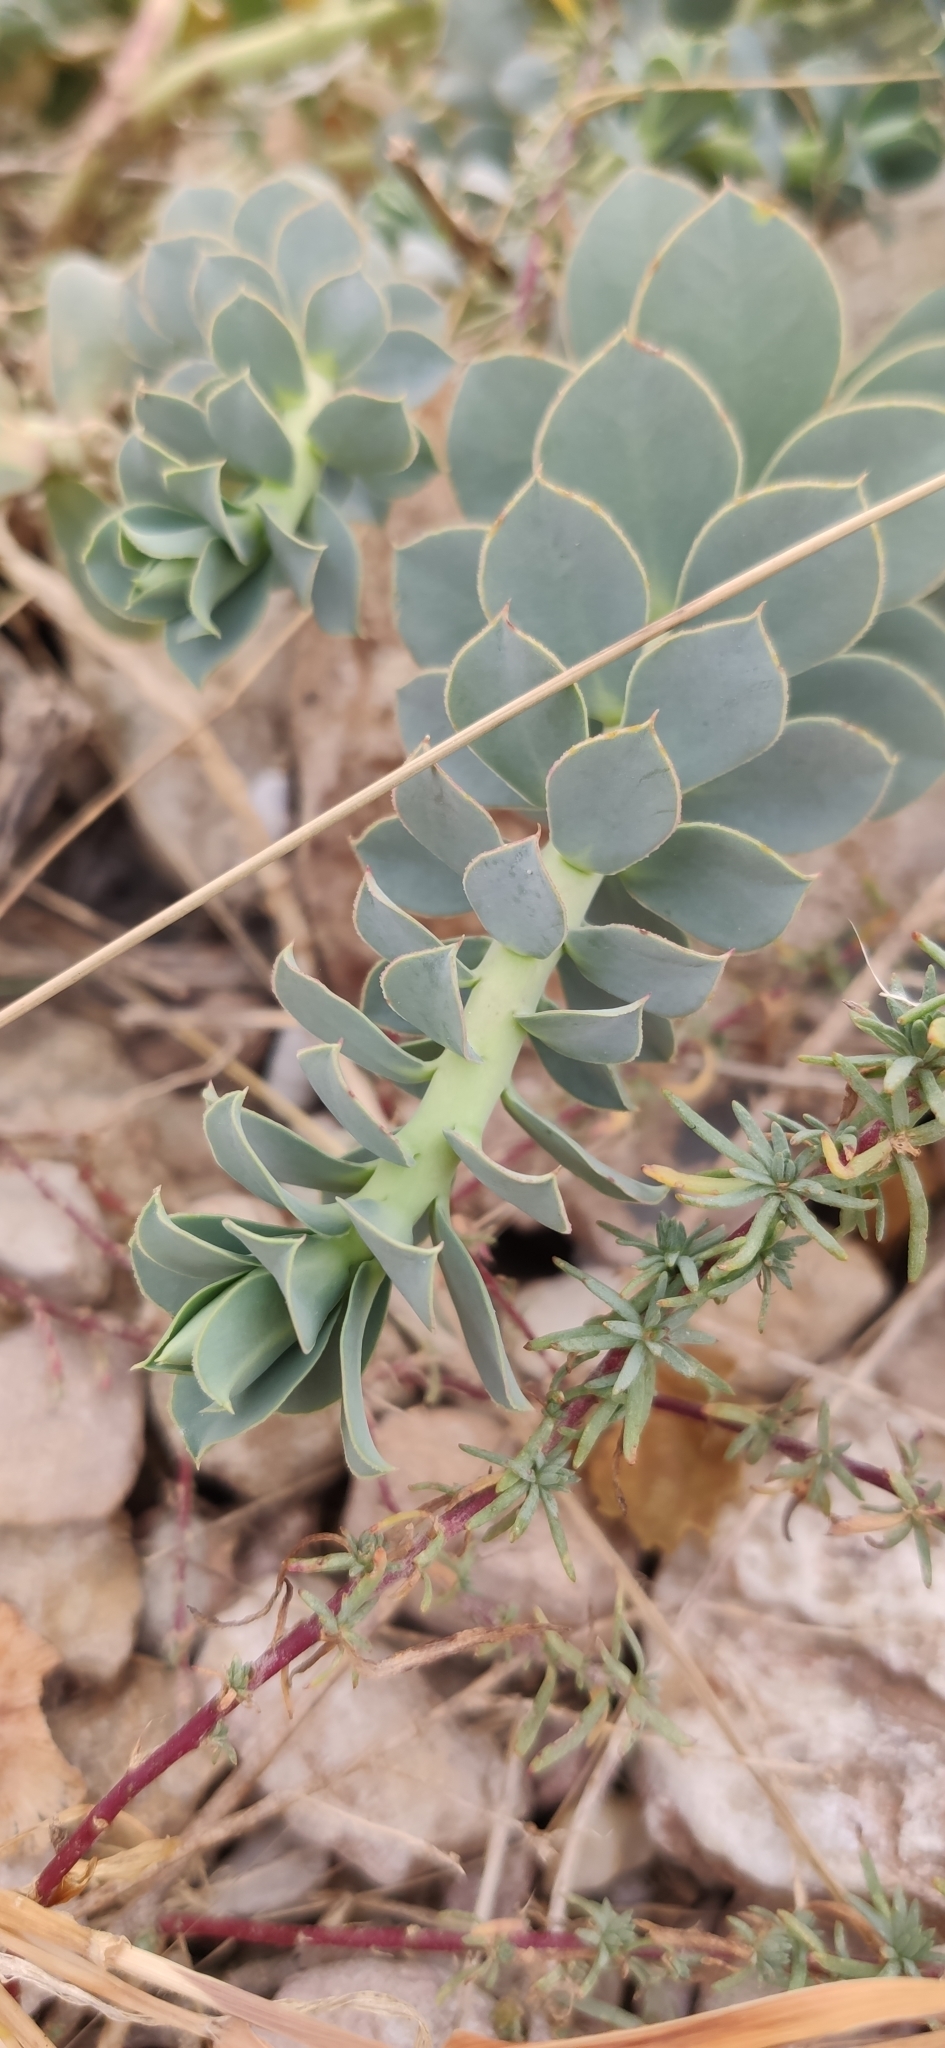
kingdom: Plantae
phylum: Tracheophyta
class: Magnoliopsida
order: Malpighiales
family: Euphorbiaceae
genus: Euphorbia
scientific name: Euphorbia myrsinites
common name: Myrtle spurge
